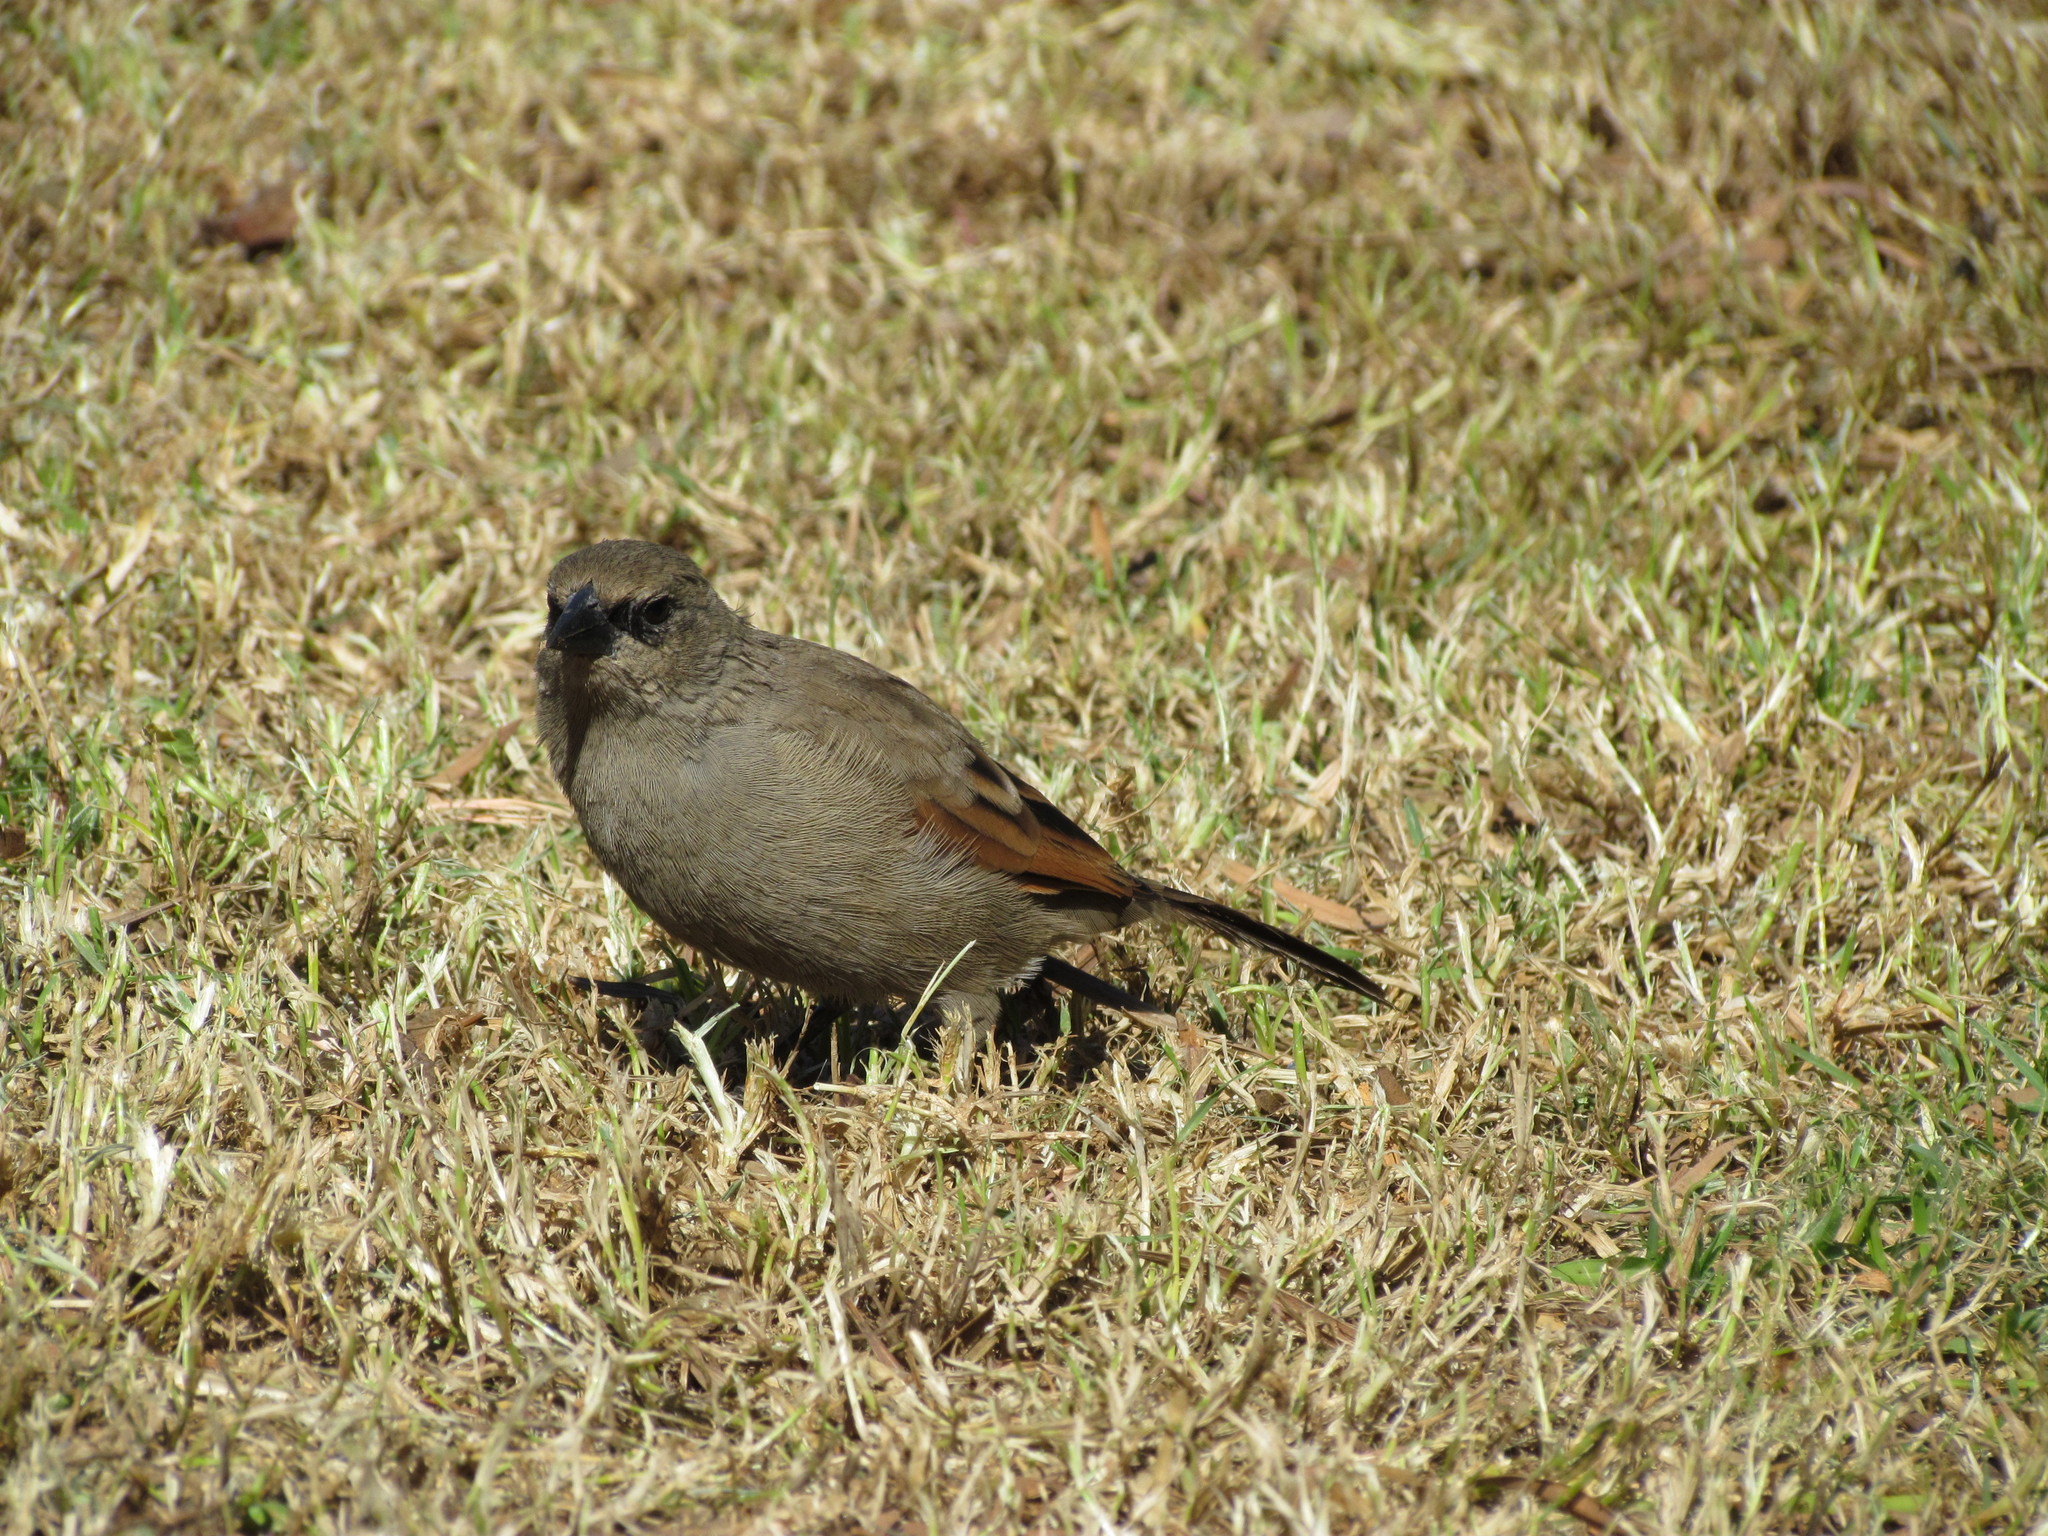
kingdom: Animalia
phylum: Chordata
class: Aves
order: Passeriformes
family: Icteridae
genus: Agelaioides
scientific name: Agelaioides badius
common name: Baywing
